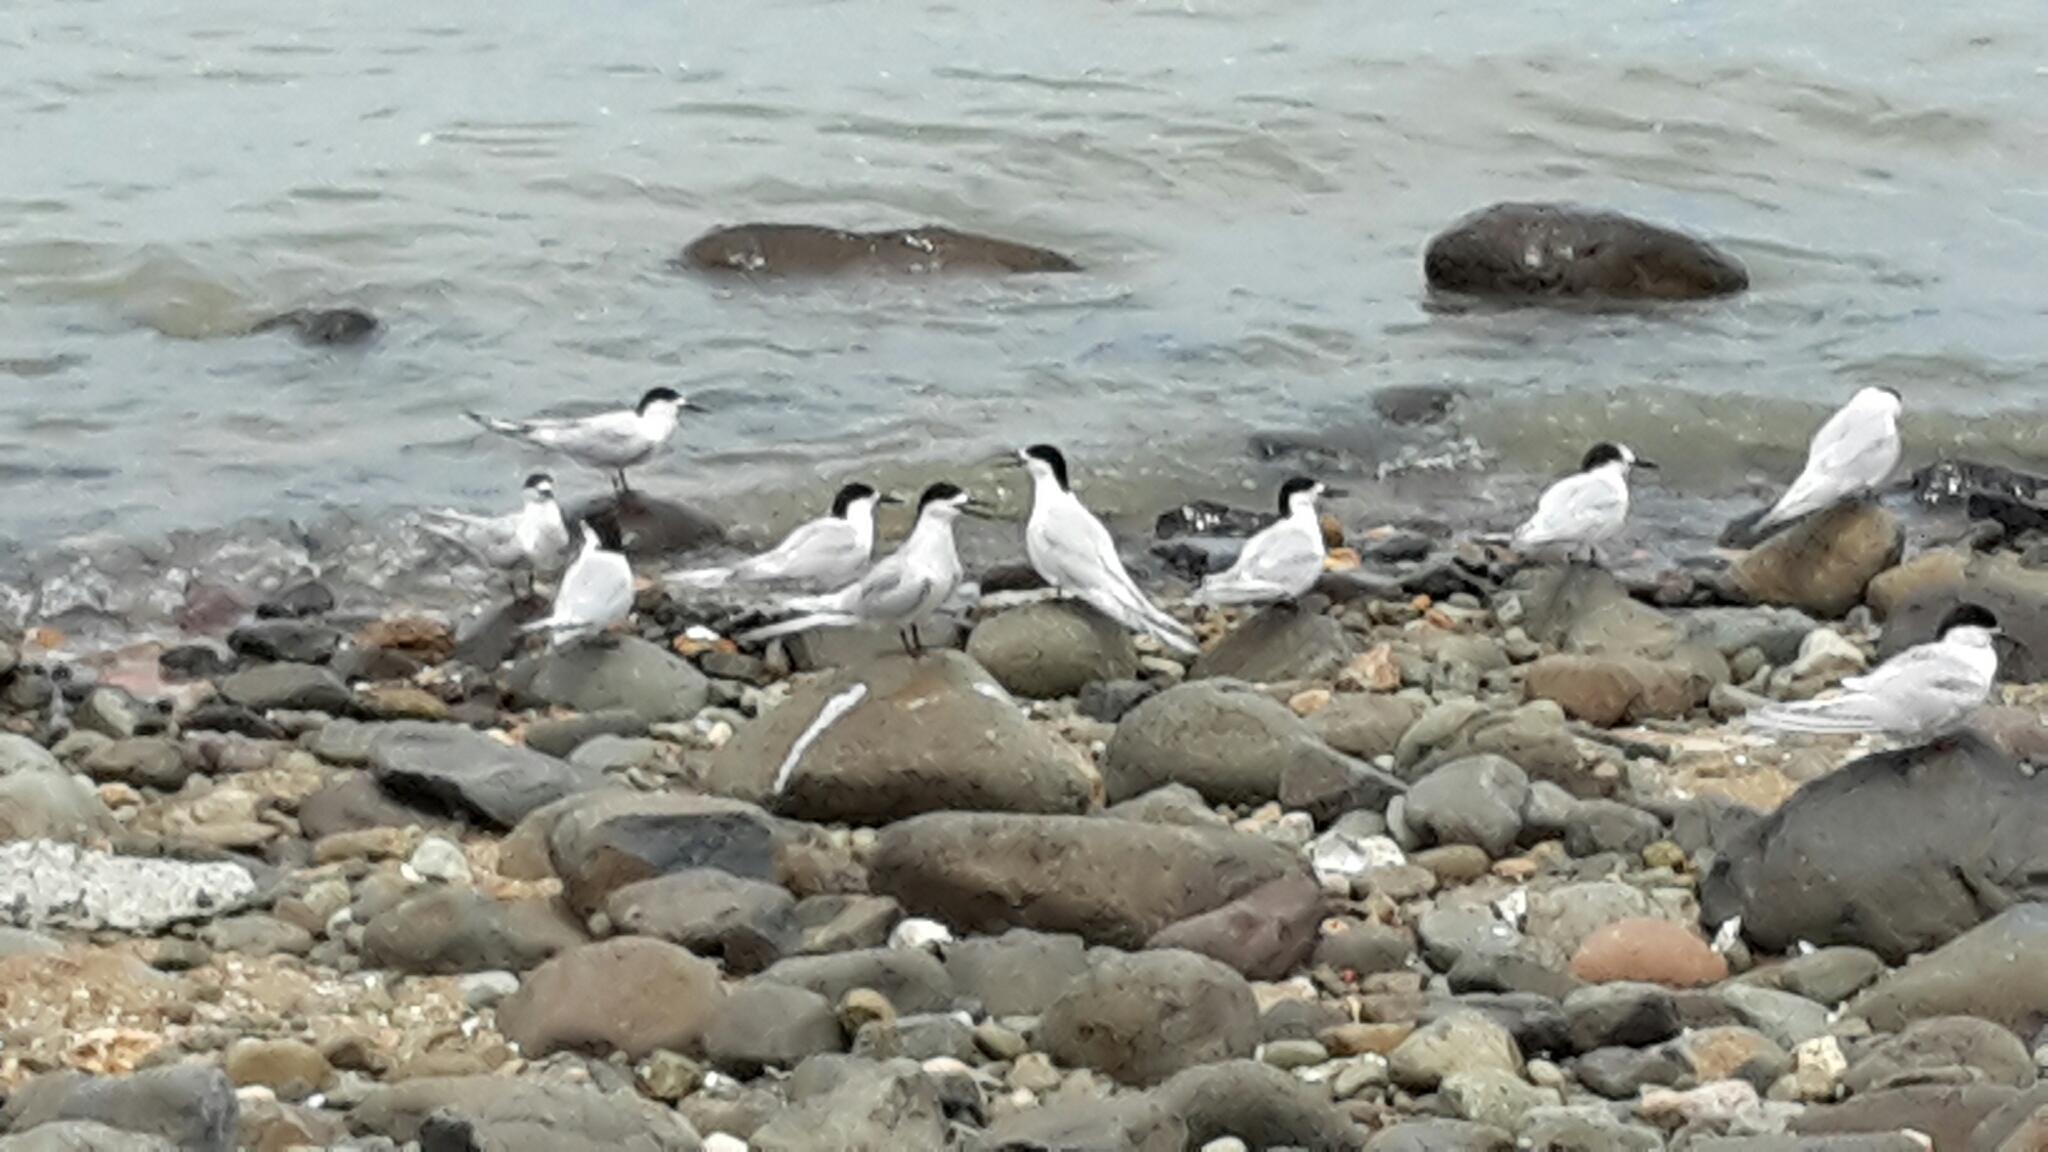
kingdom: Animalia
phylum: Chordata
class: Aves
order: Charadriiformes
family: Laridae
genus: Sterna
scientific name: Sterna striata
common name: White-fronted tern
